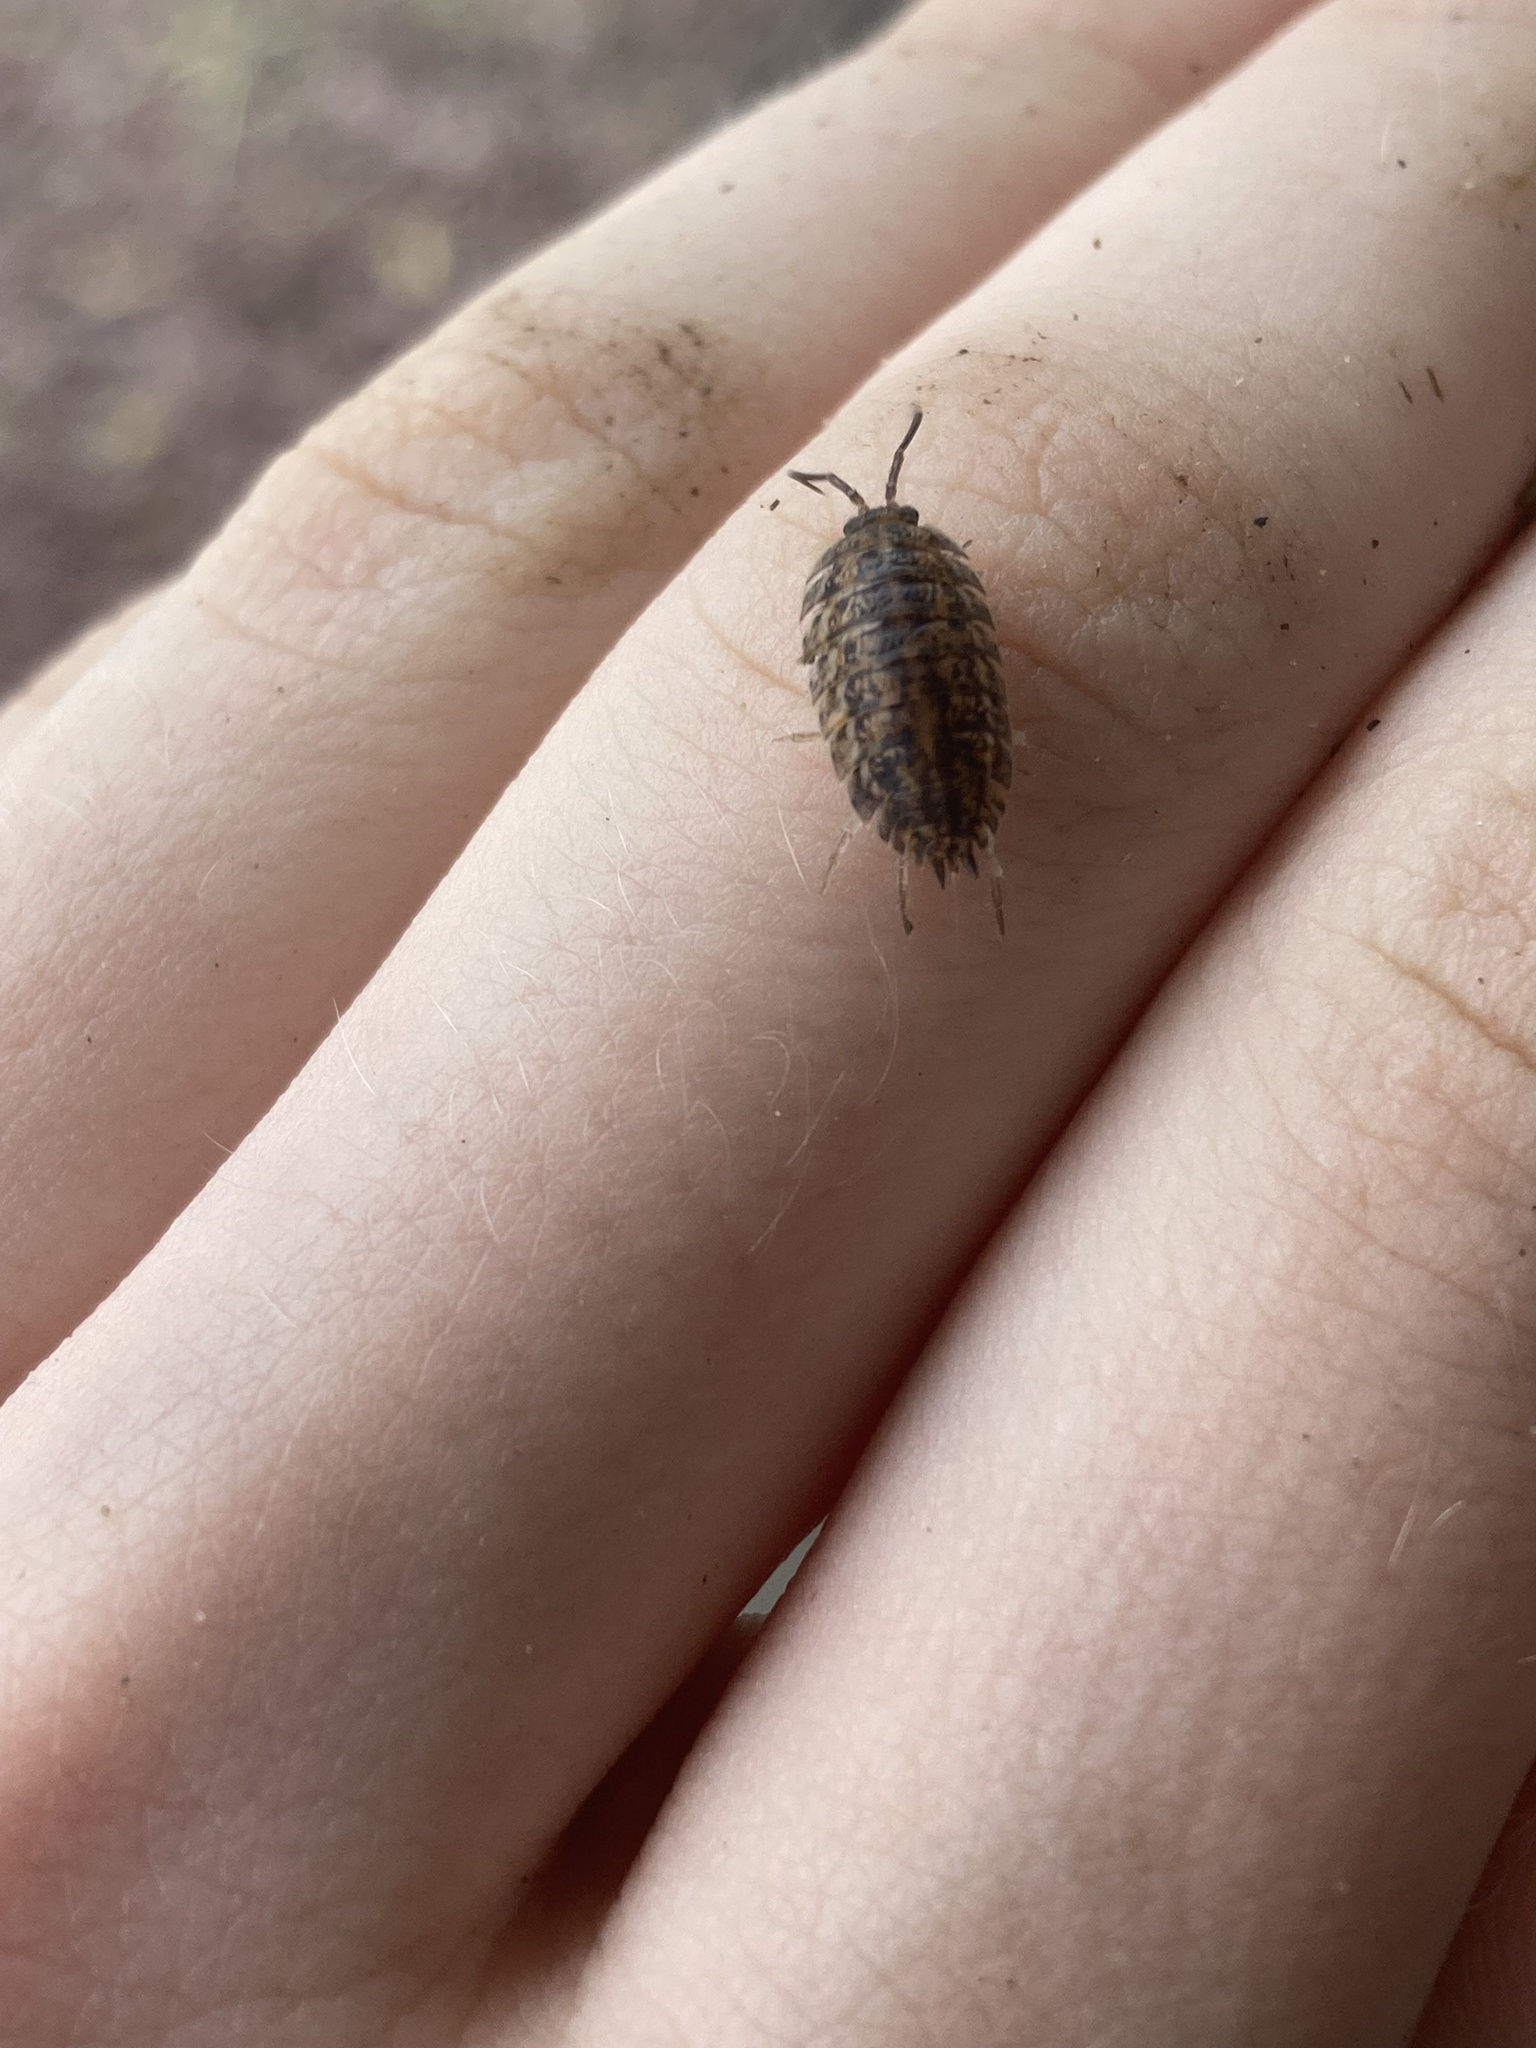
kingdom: Animalia
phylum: Arthropoda
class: Malacostraca
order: Isopoda
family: Trachelipodidae
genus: Trachelipus
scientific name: Trachelipus rathkii
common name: Isopod
